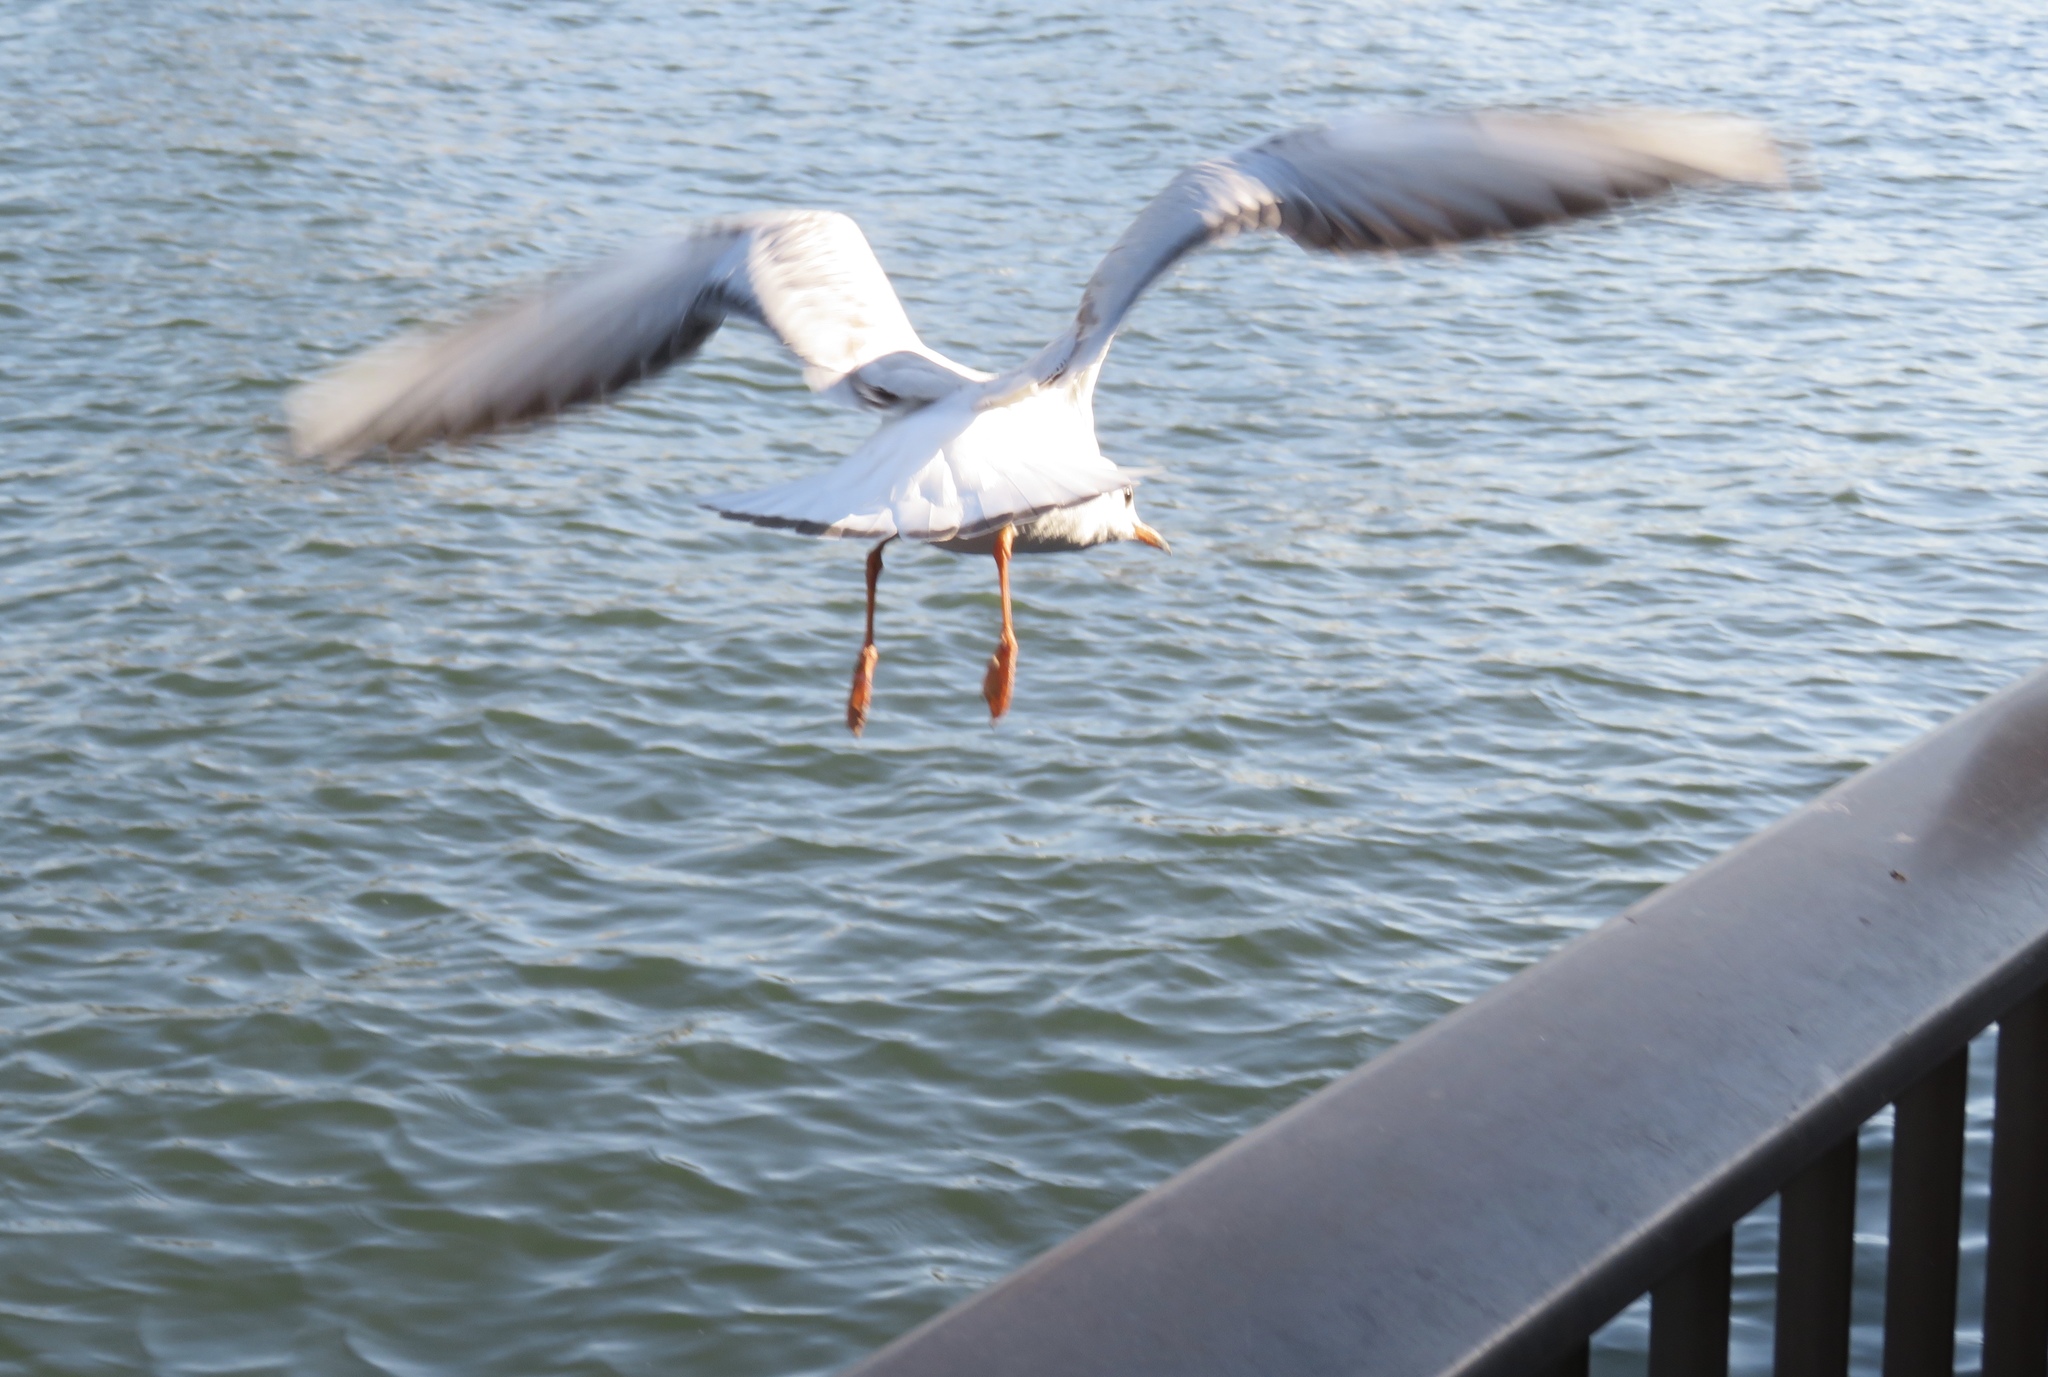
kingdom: Animalia
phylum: Chordata
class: Aves
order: Charadriiformes
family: Laridae
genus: Chroicocephalus
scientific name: Chroicocephalus ridibundus
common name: Black-headed gull
